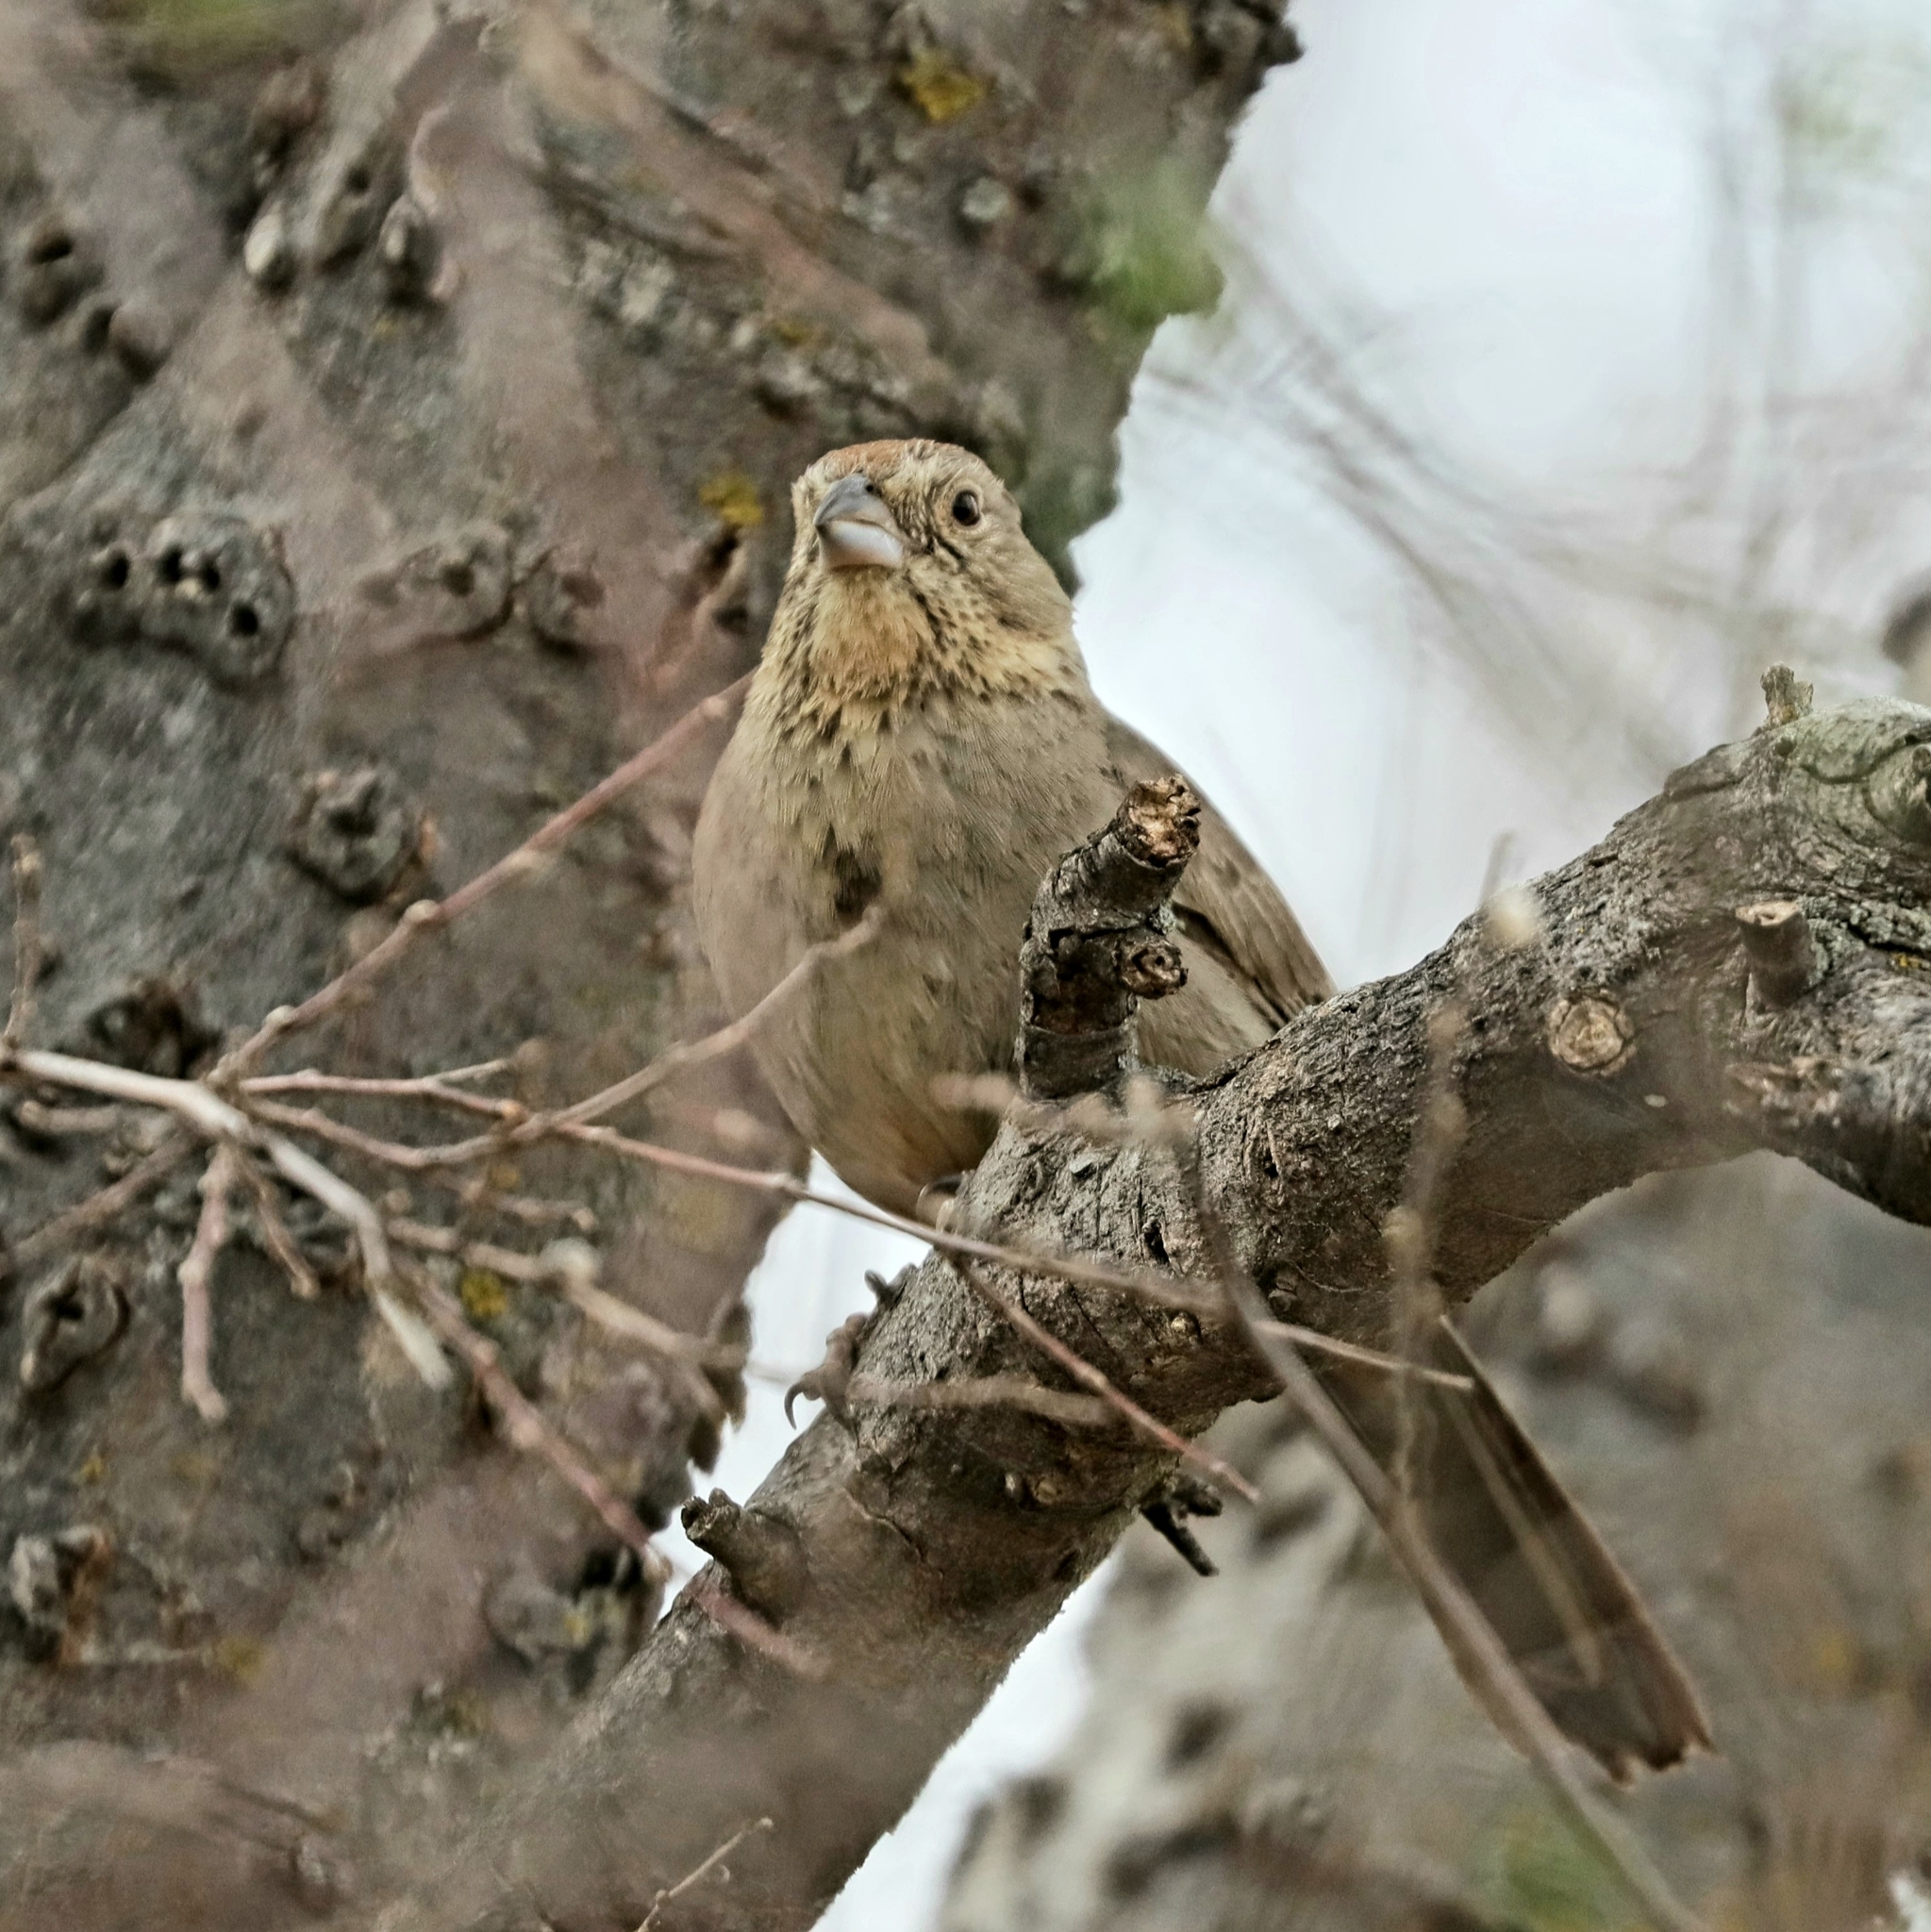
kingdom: Animalia
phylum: Chordata
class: Aves
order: Passeriformes
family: Passerellidae
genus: Melozone
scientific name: Melozone fusca
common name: Canyon towhee
